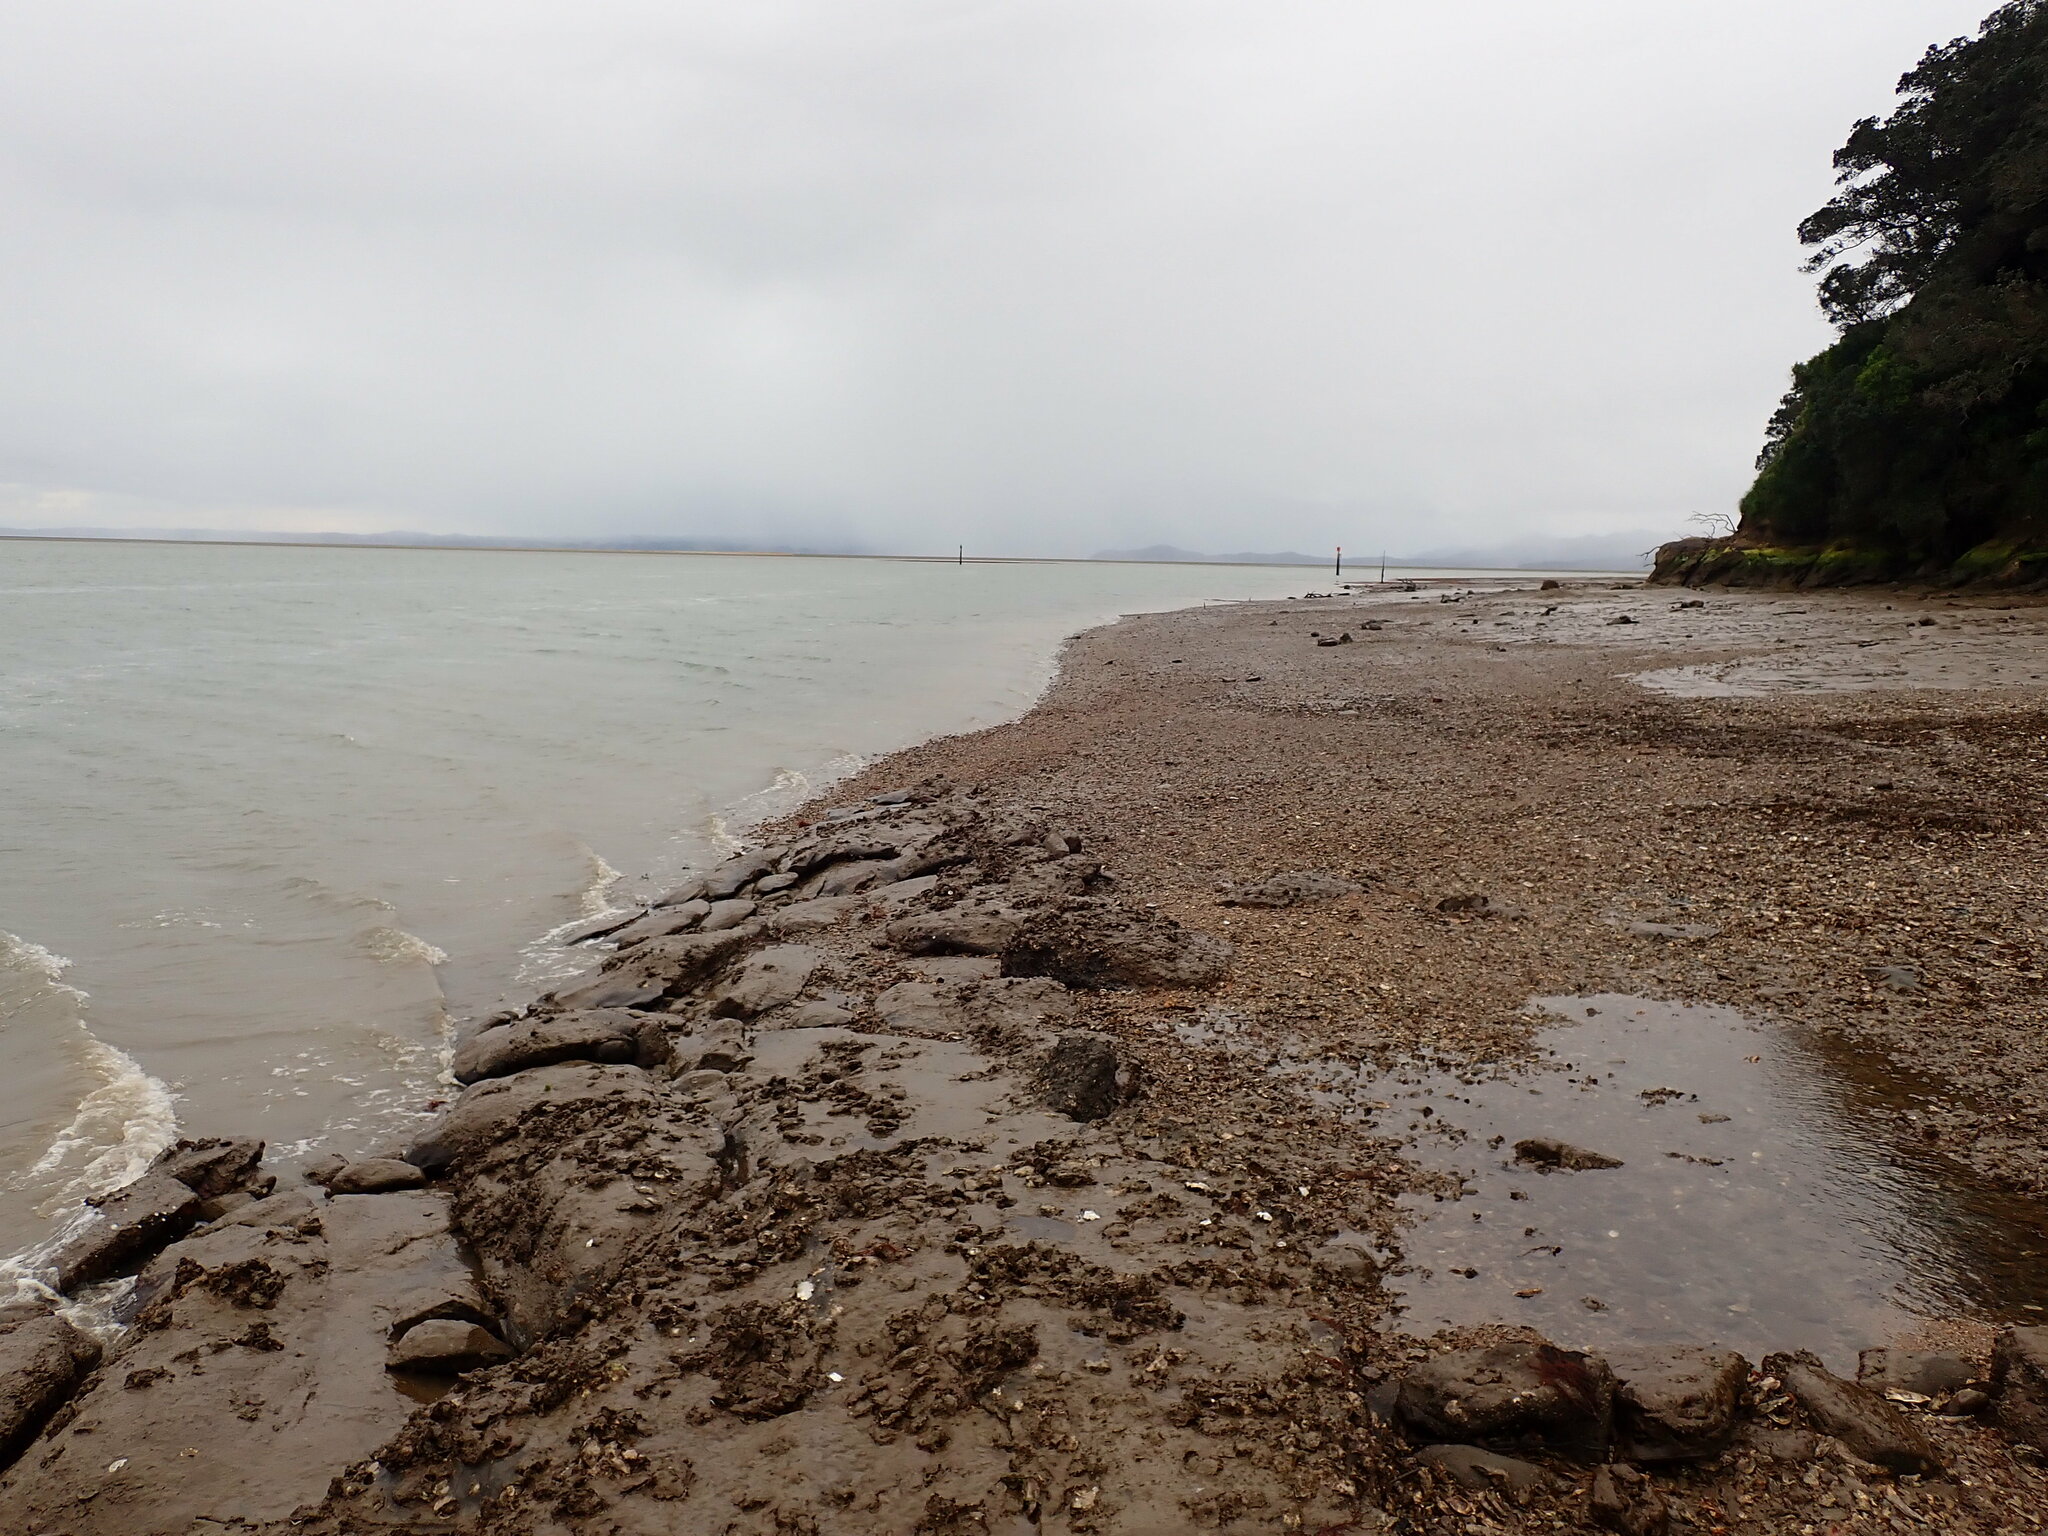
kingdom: Animalia
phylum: Mollusca
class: Bivalvia
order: Ostreida
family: Ostreidae
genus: Magallana
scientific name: Magallana gigas
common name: Pacific oyster
